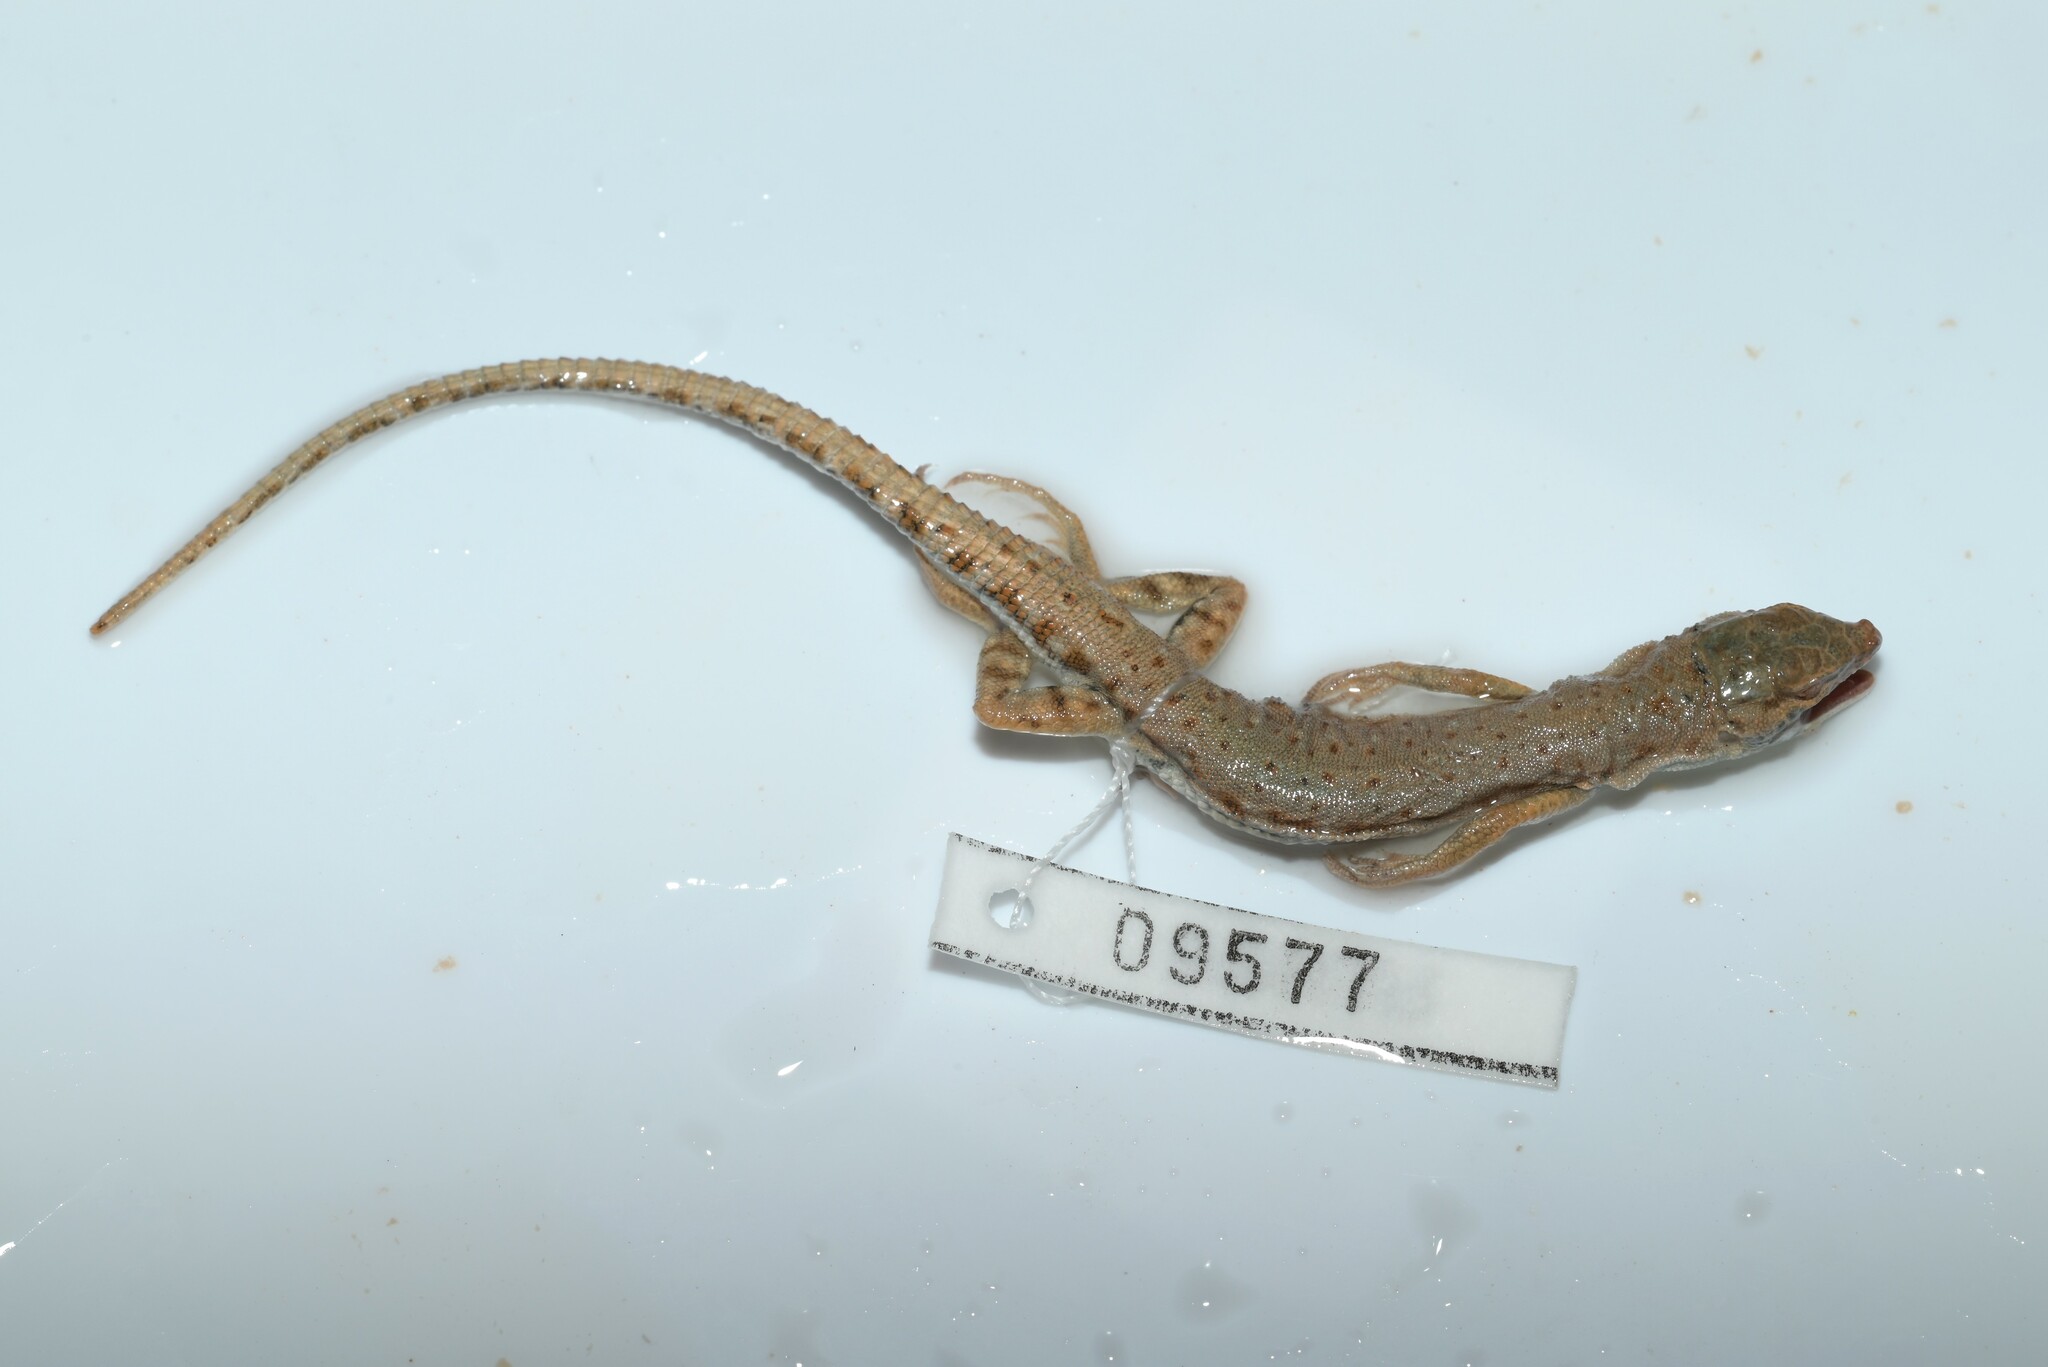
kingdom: Animalia
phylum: Chordata
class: Squamata
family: Lacertidae
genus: Mesalina
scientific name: Mesalina brevirostris
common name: Blanford's short-nosed desert lizard
